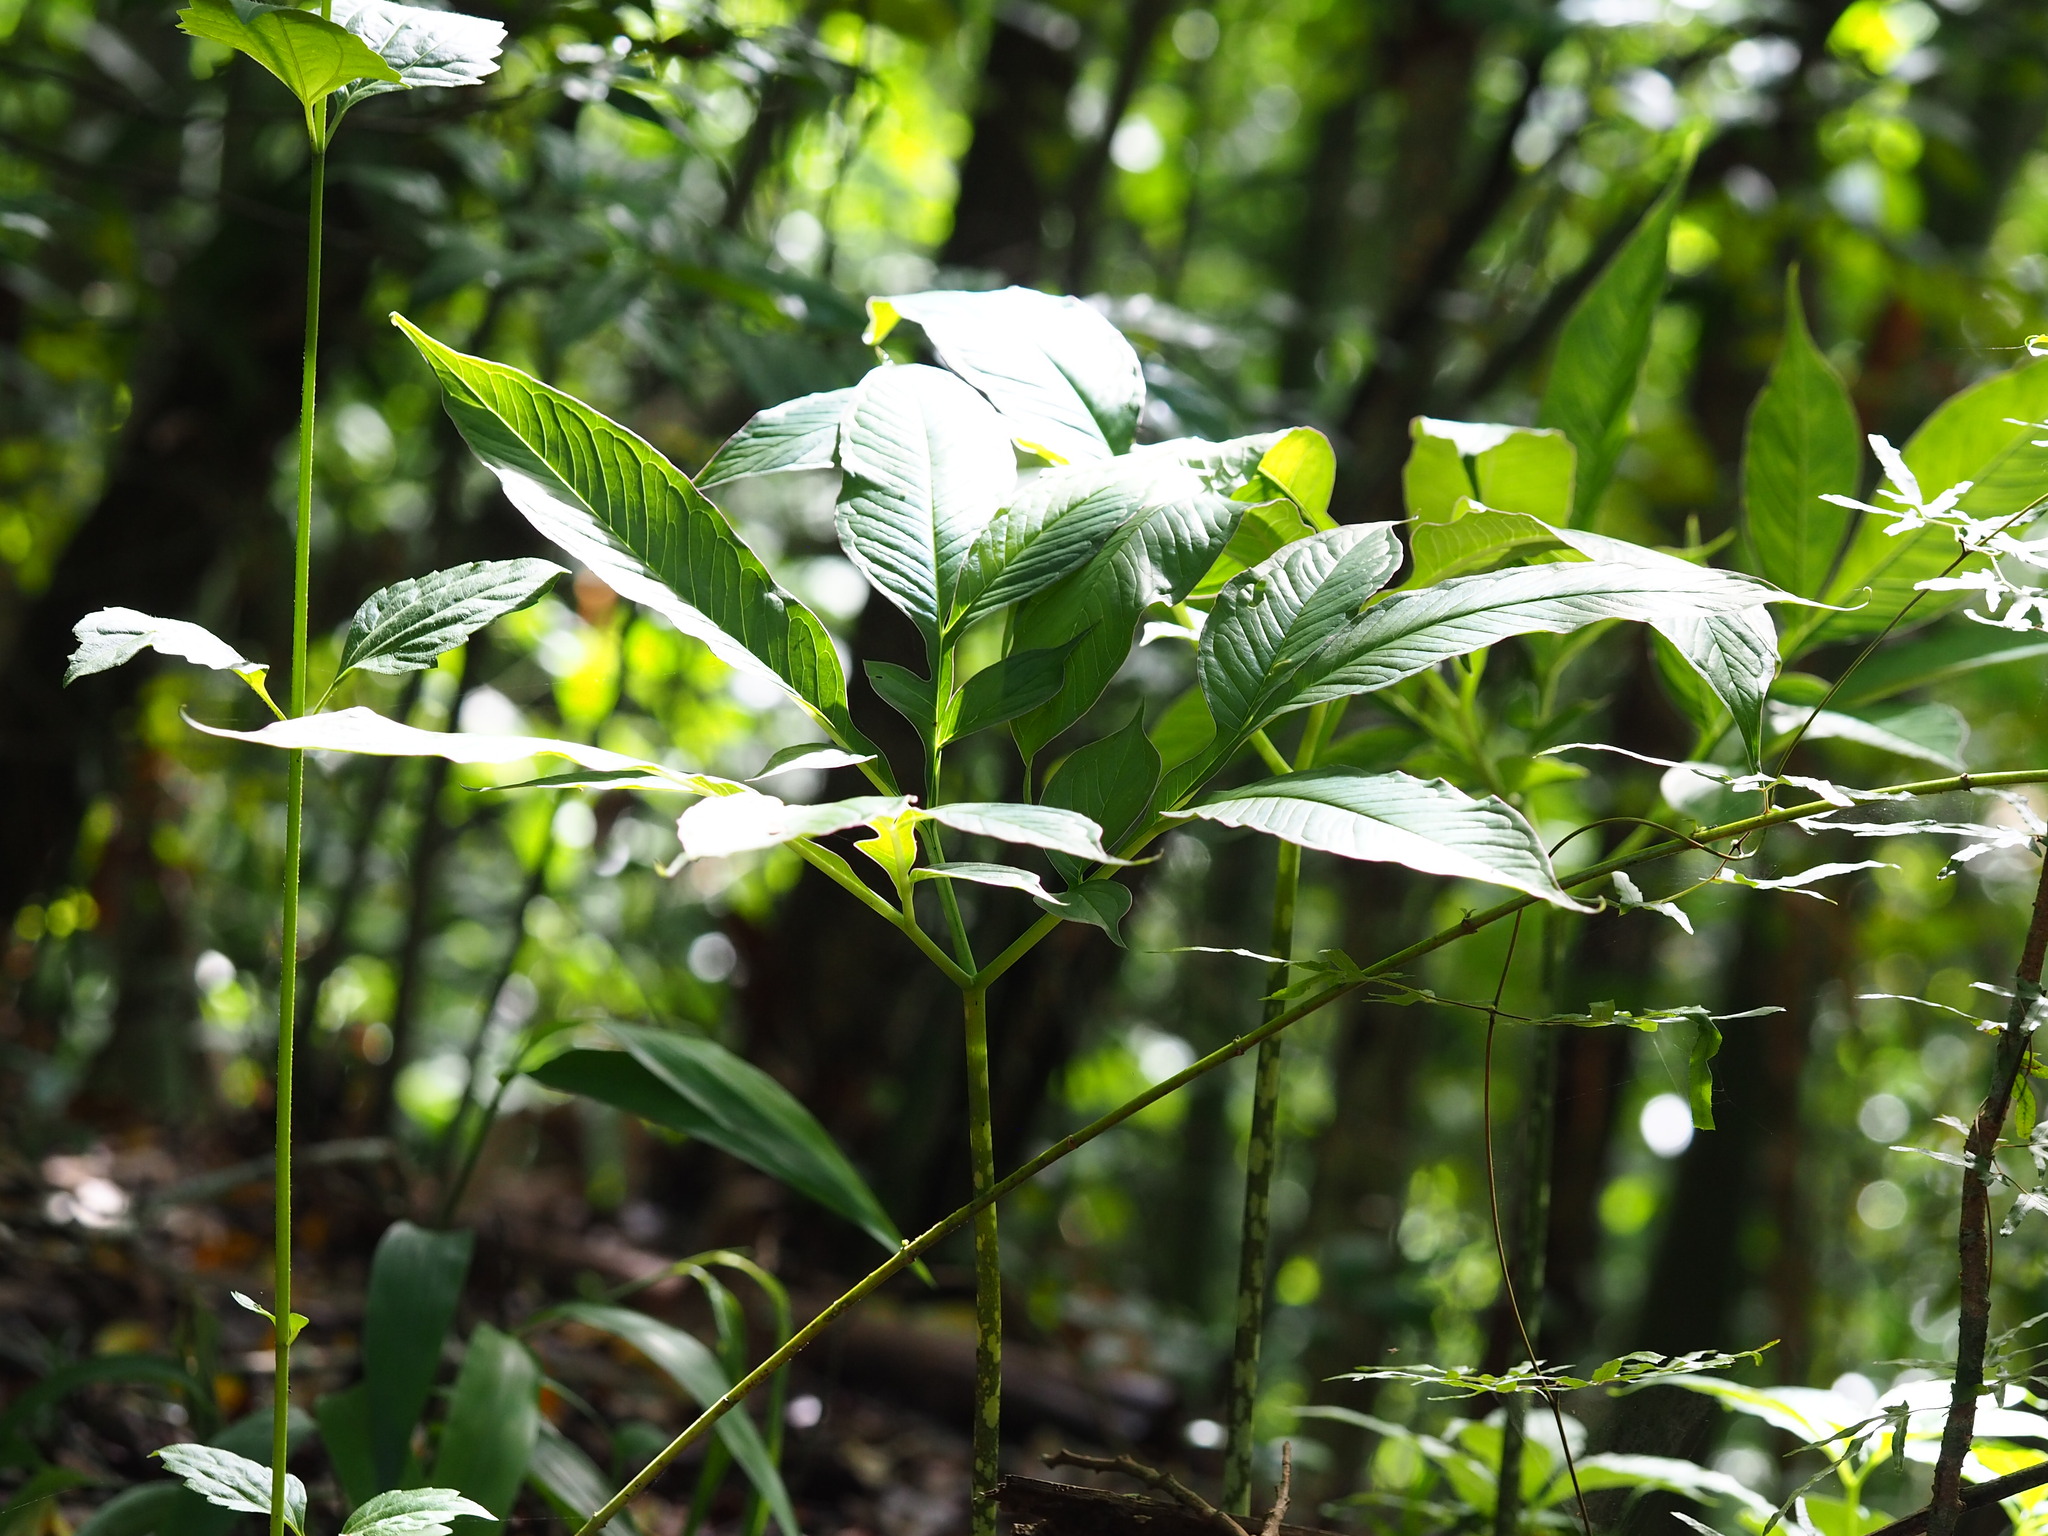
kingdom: Plantae
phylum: Tracheophyta
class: Liliopsida
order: Alismatales
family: Araceae
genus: Amorphophallus
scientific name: Amorphophallus henryi
